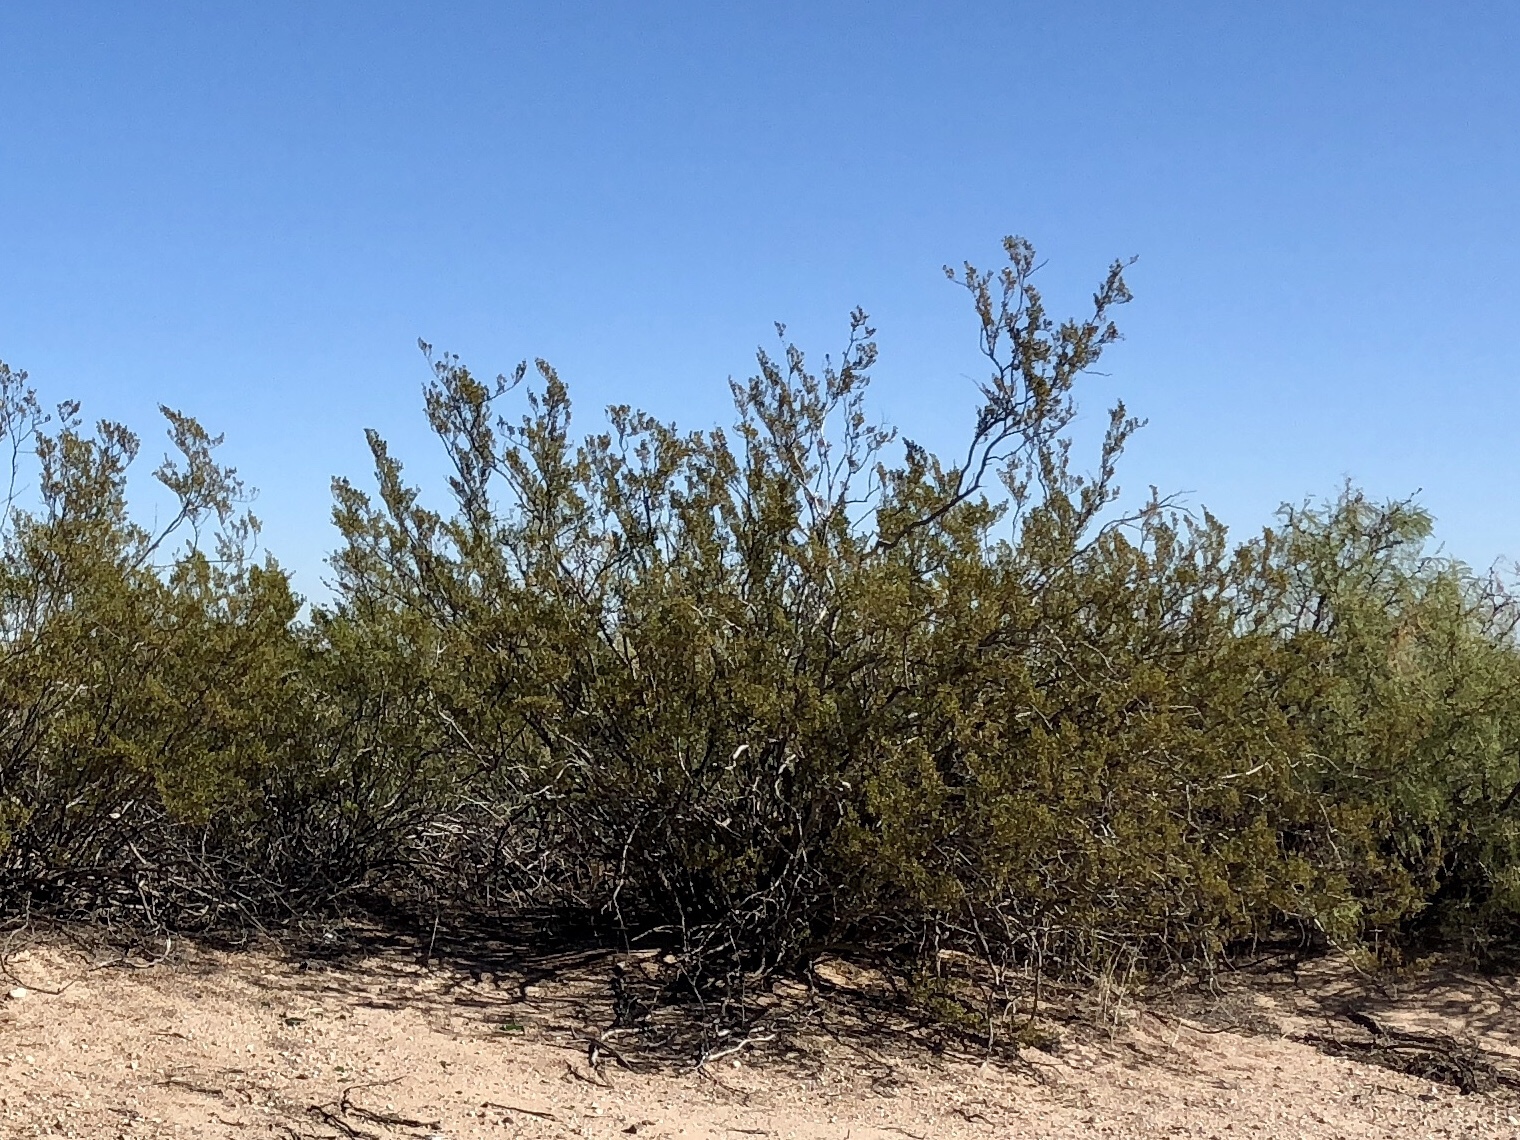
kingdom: Plantae
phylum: Tracheophyta
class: Magnoliopsida
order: Zygophyllales
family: Zygophyllaceae
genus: Larrea
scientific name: Larrea tridentata
